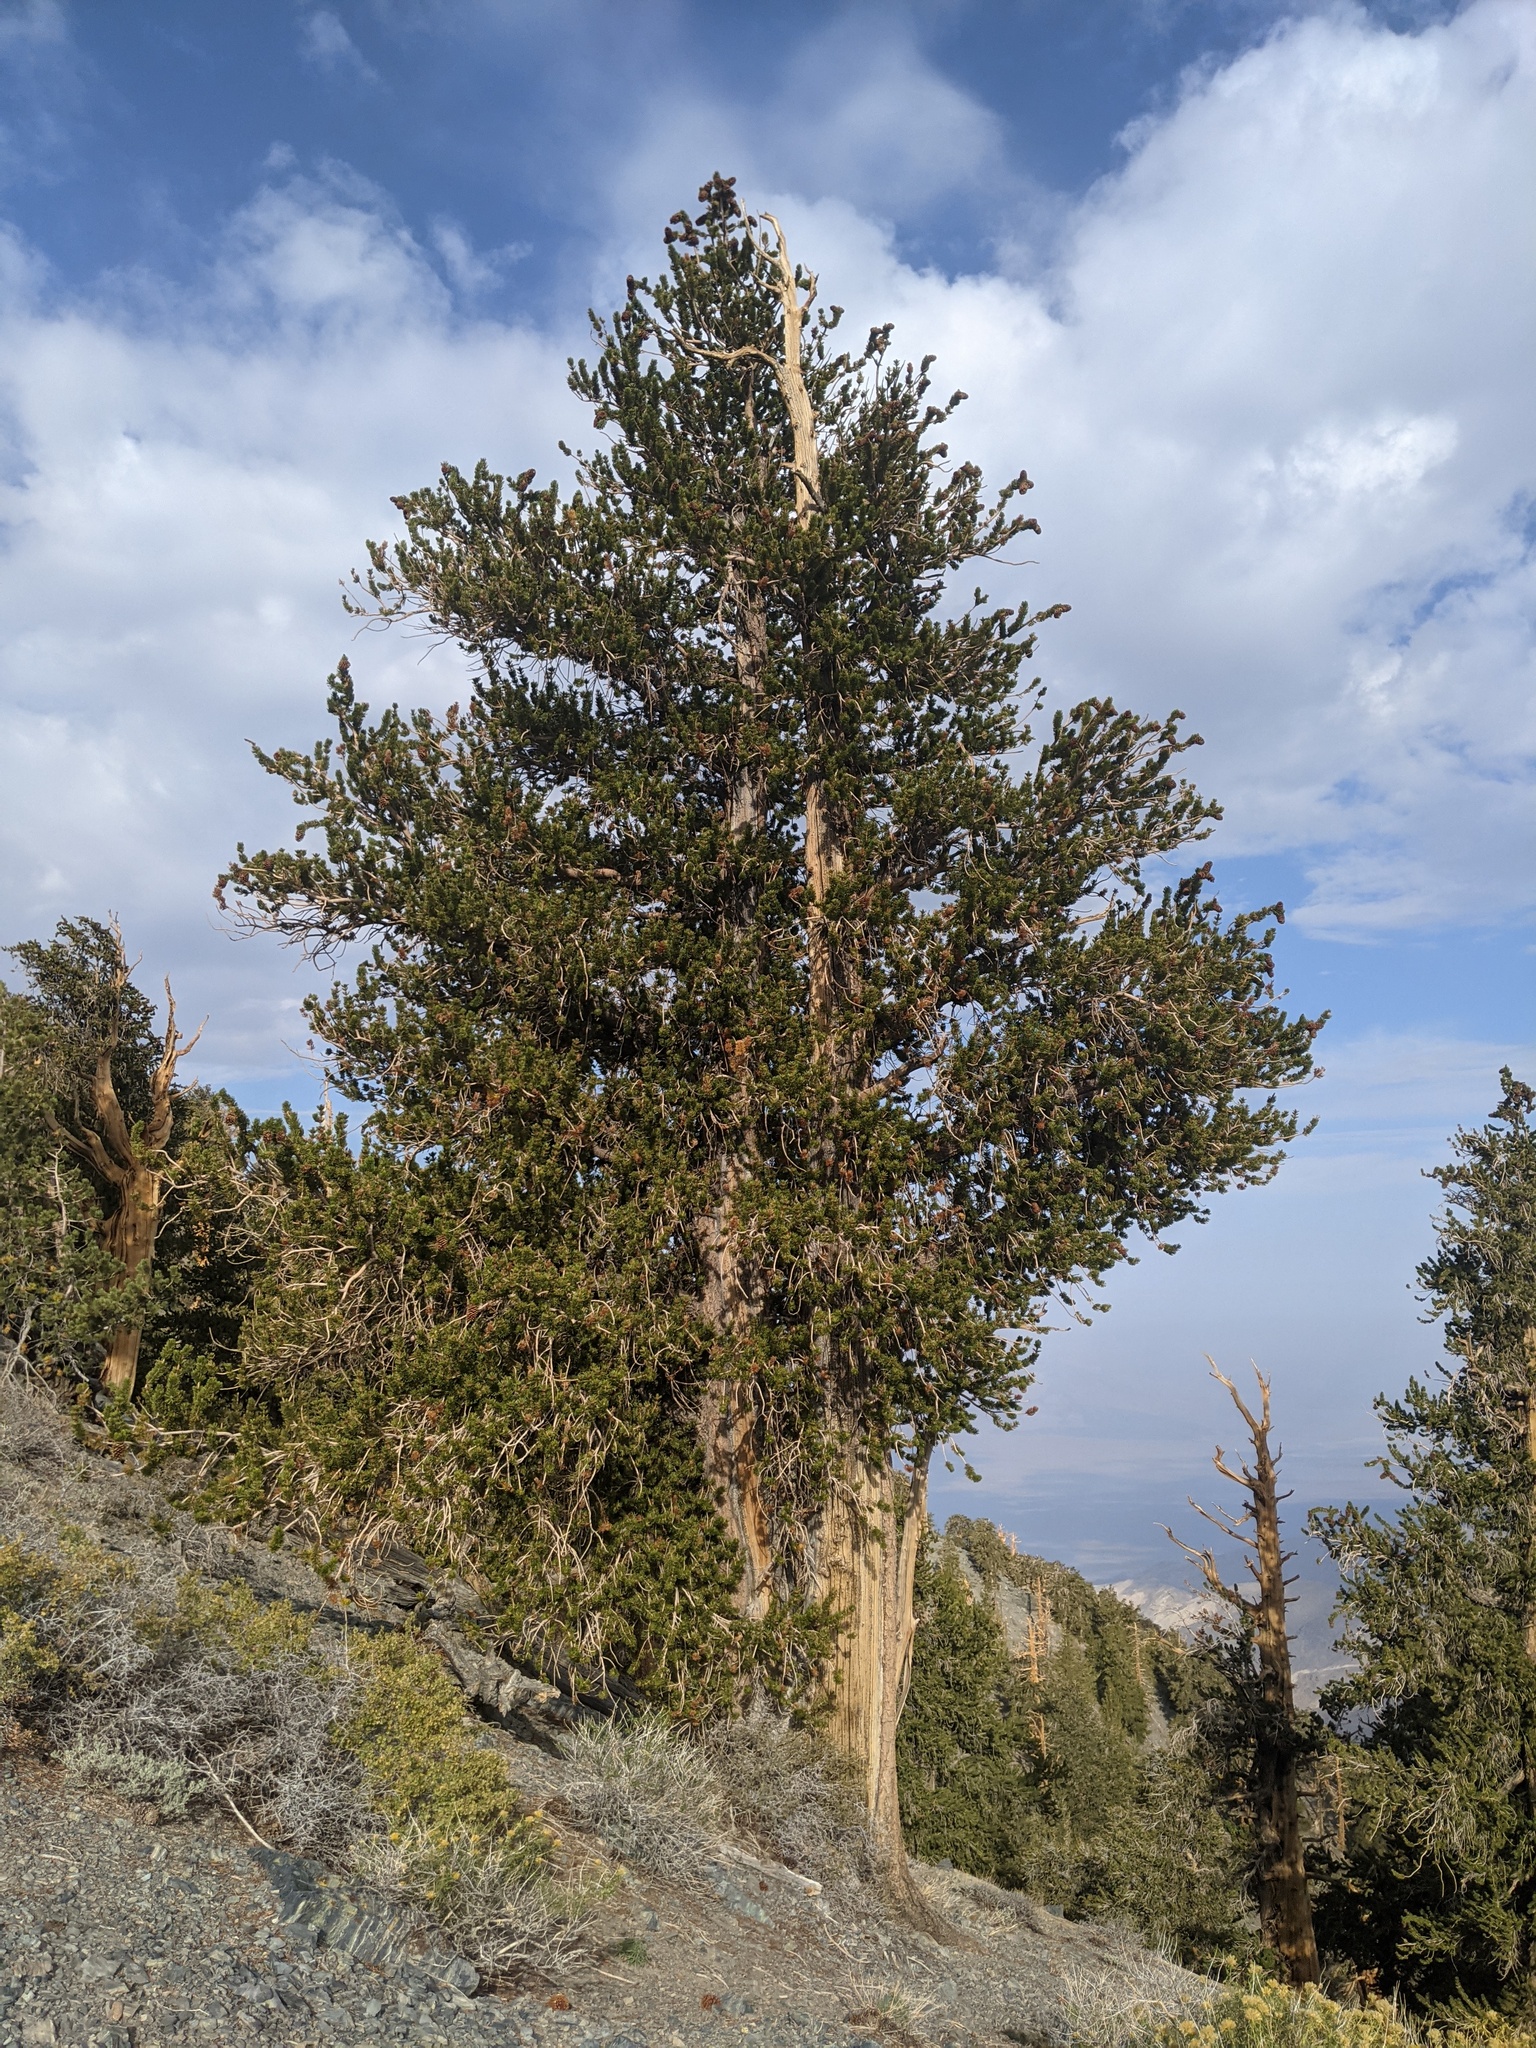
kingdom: Plantae
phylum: Tracheophyta
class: Pinopsida
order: Pinales
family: Pinaceae
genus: Pinus
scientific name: Pinus longaeva
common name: Intermountain bristlecone pine
